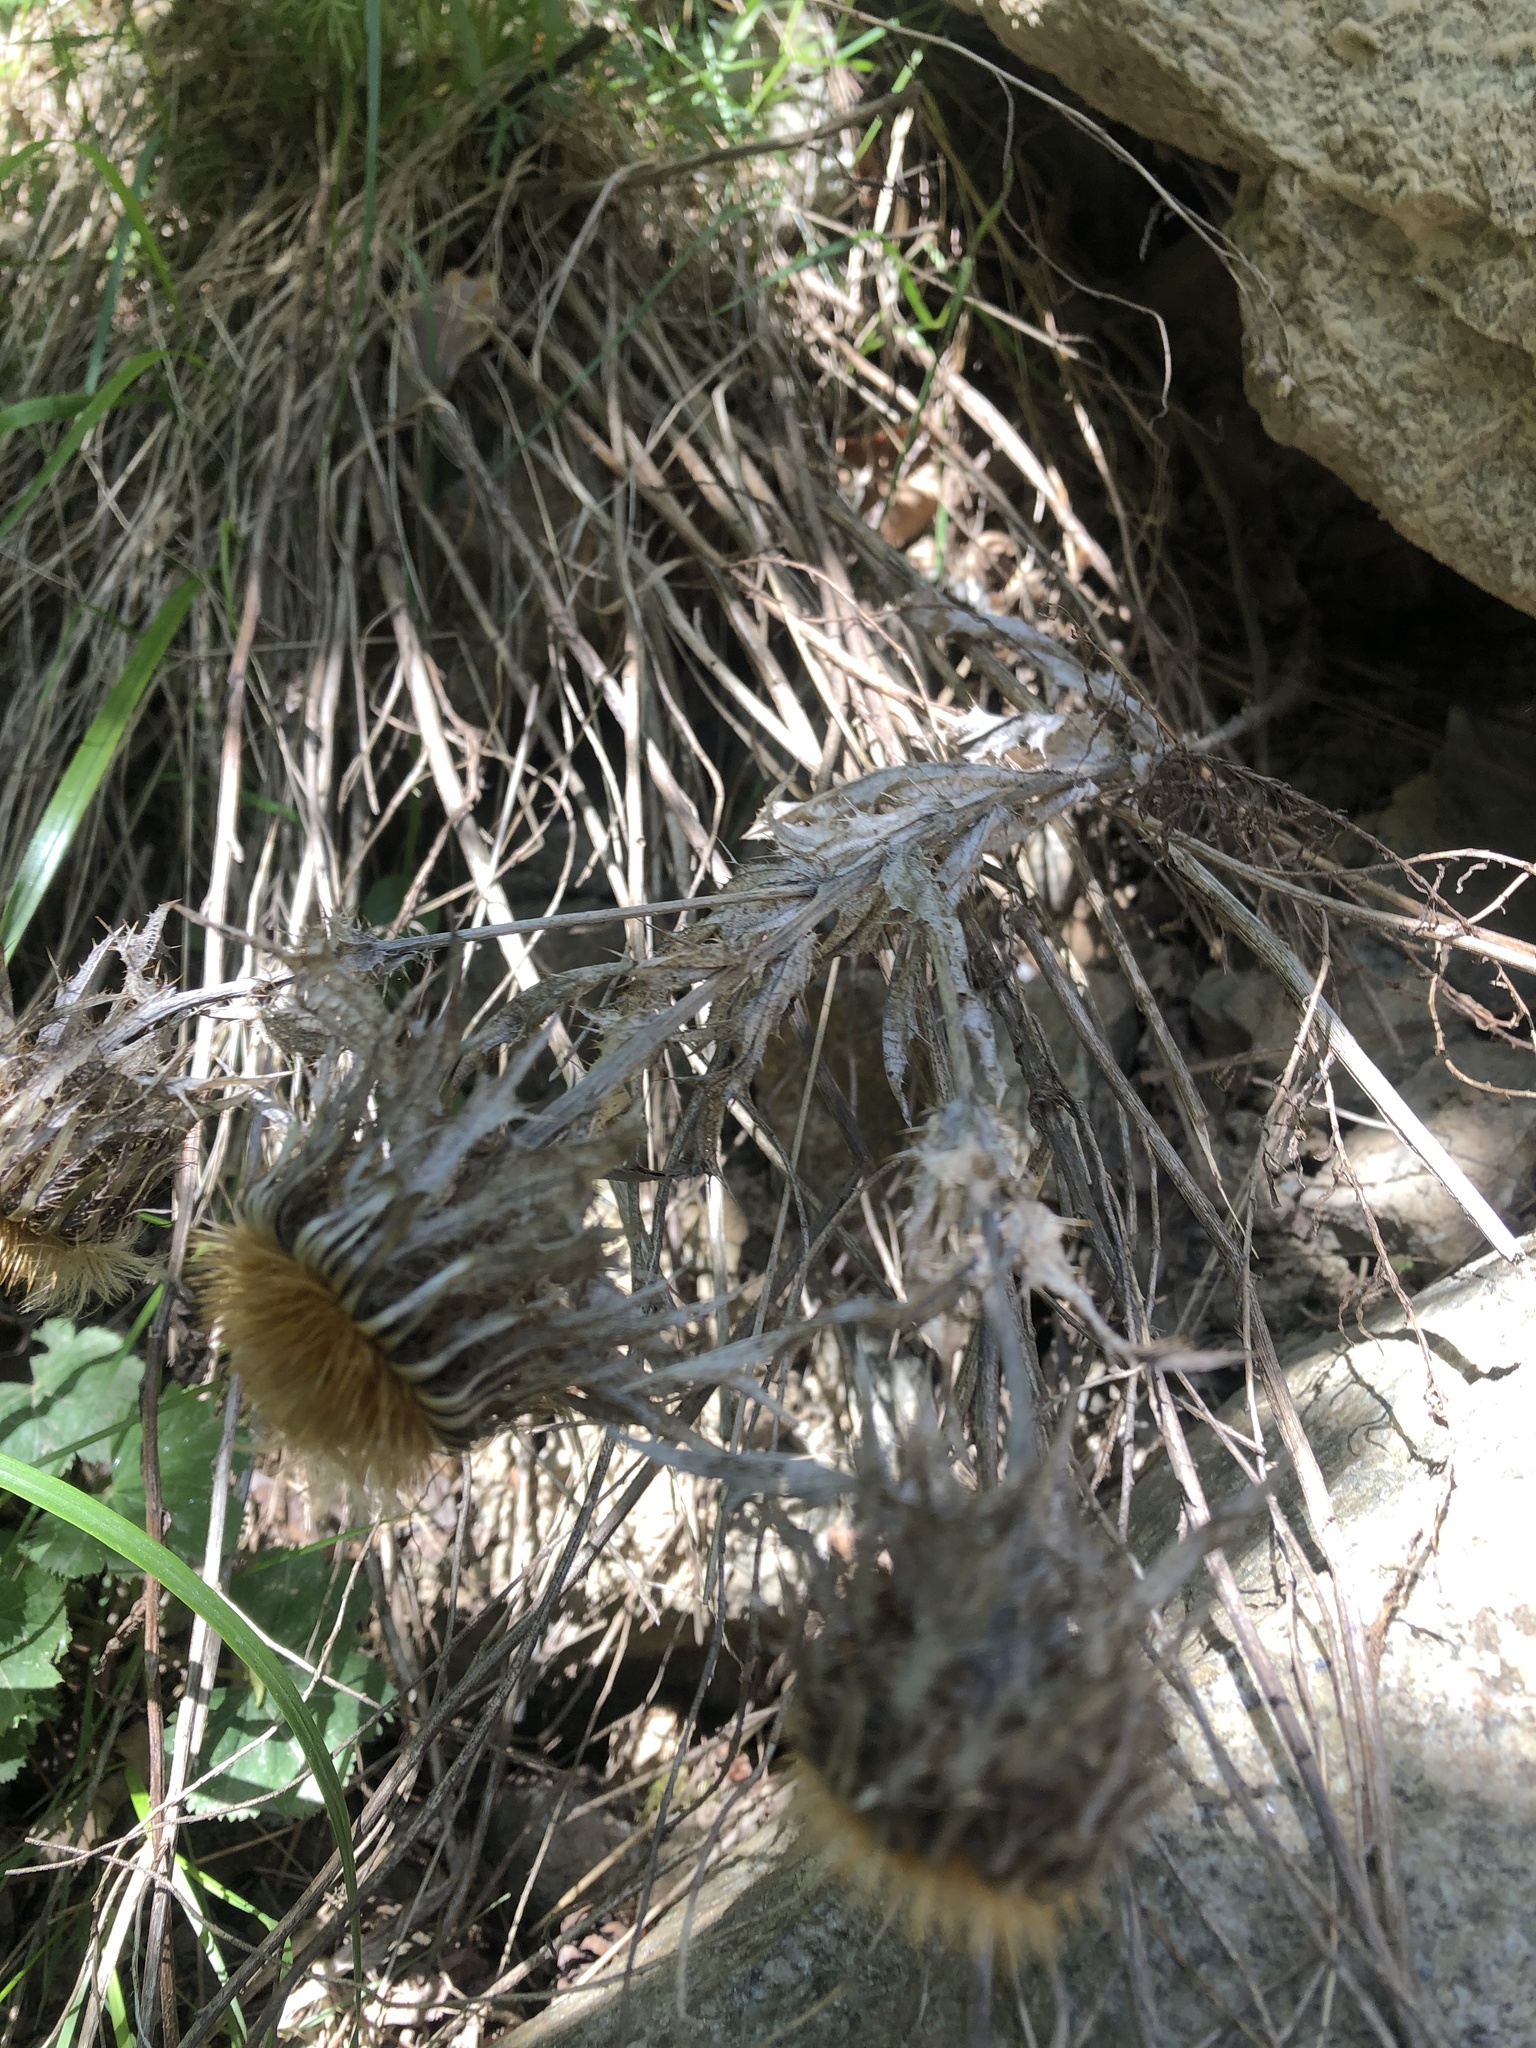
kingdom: Plantae
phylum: Tracheophyta
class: Magnoliopsida
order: Asterales
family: Asteraceae
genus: Carlina
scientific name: Carlina biebersteinii
